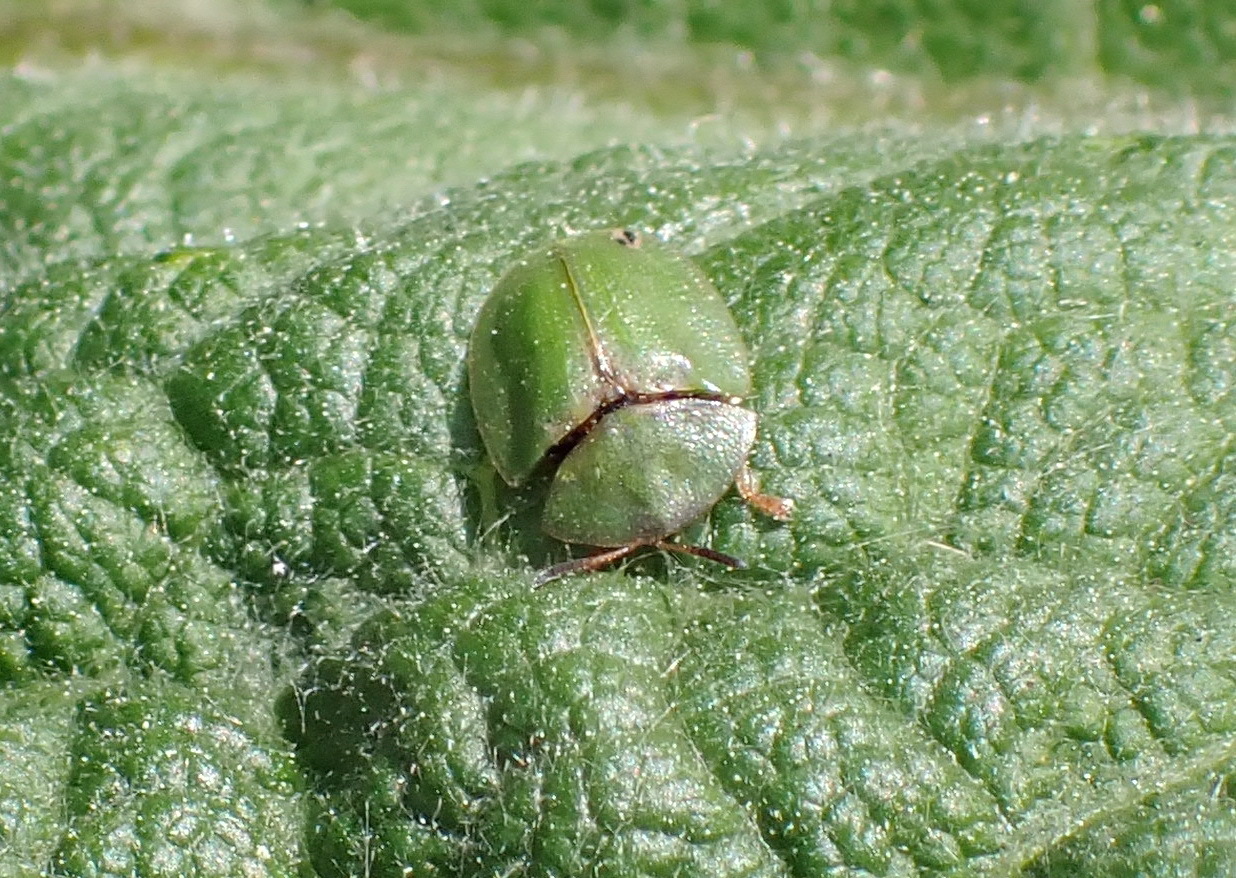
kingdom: Animalia
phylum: Arthropoda
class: Insecta
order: Coleoptera
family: Chrysomelidae
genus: Cassida
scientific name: Cassida rubiginosa
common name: Thistle tortoise beetle
